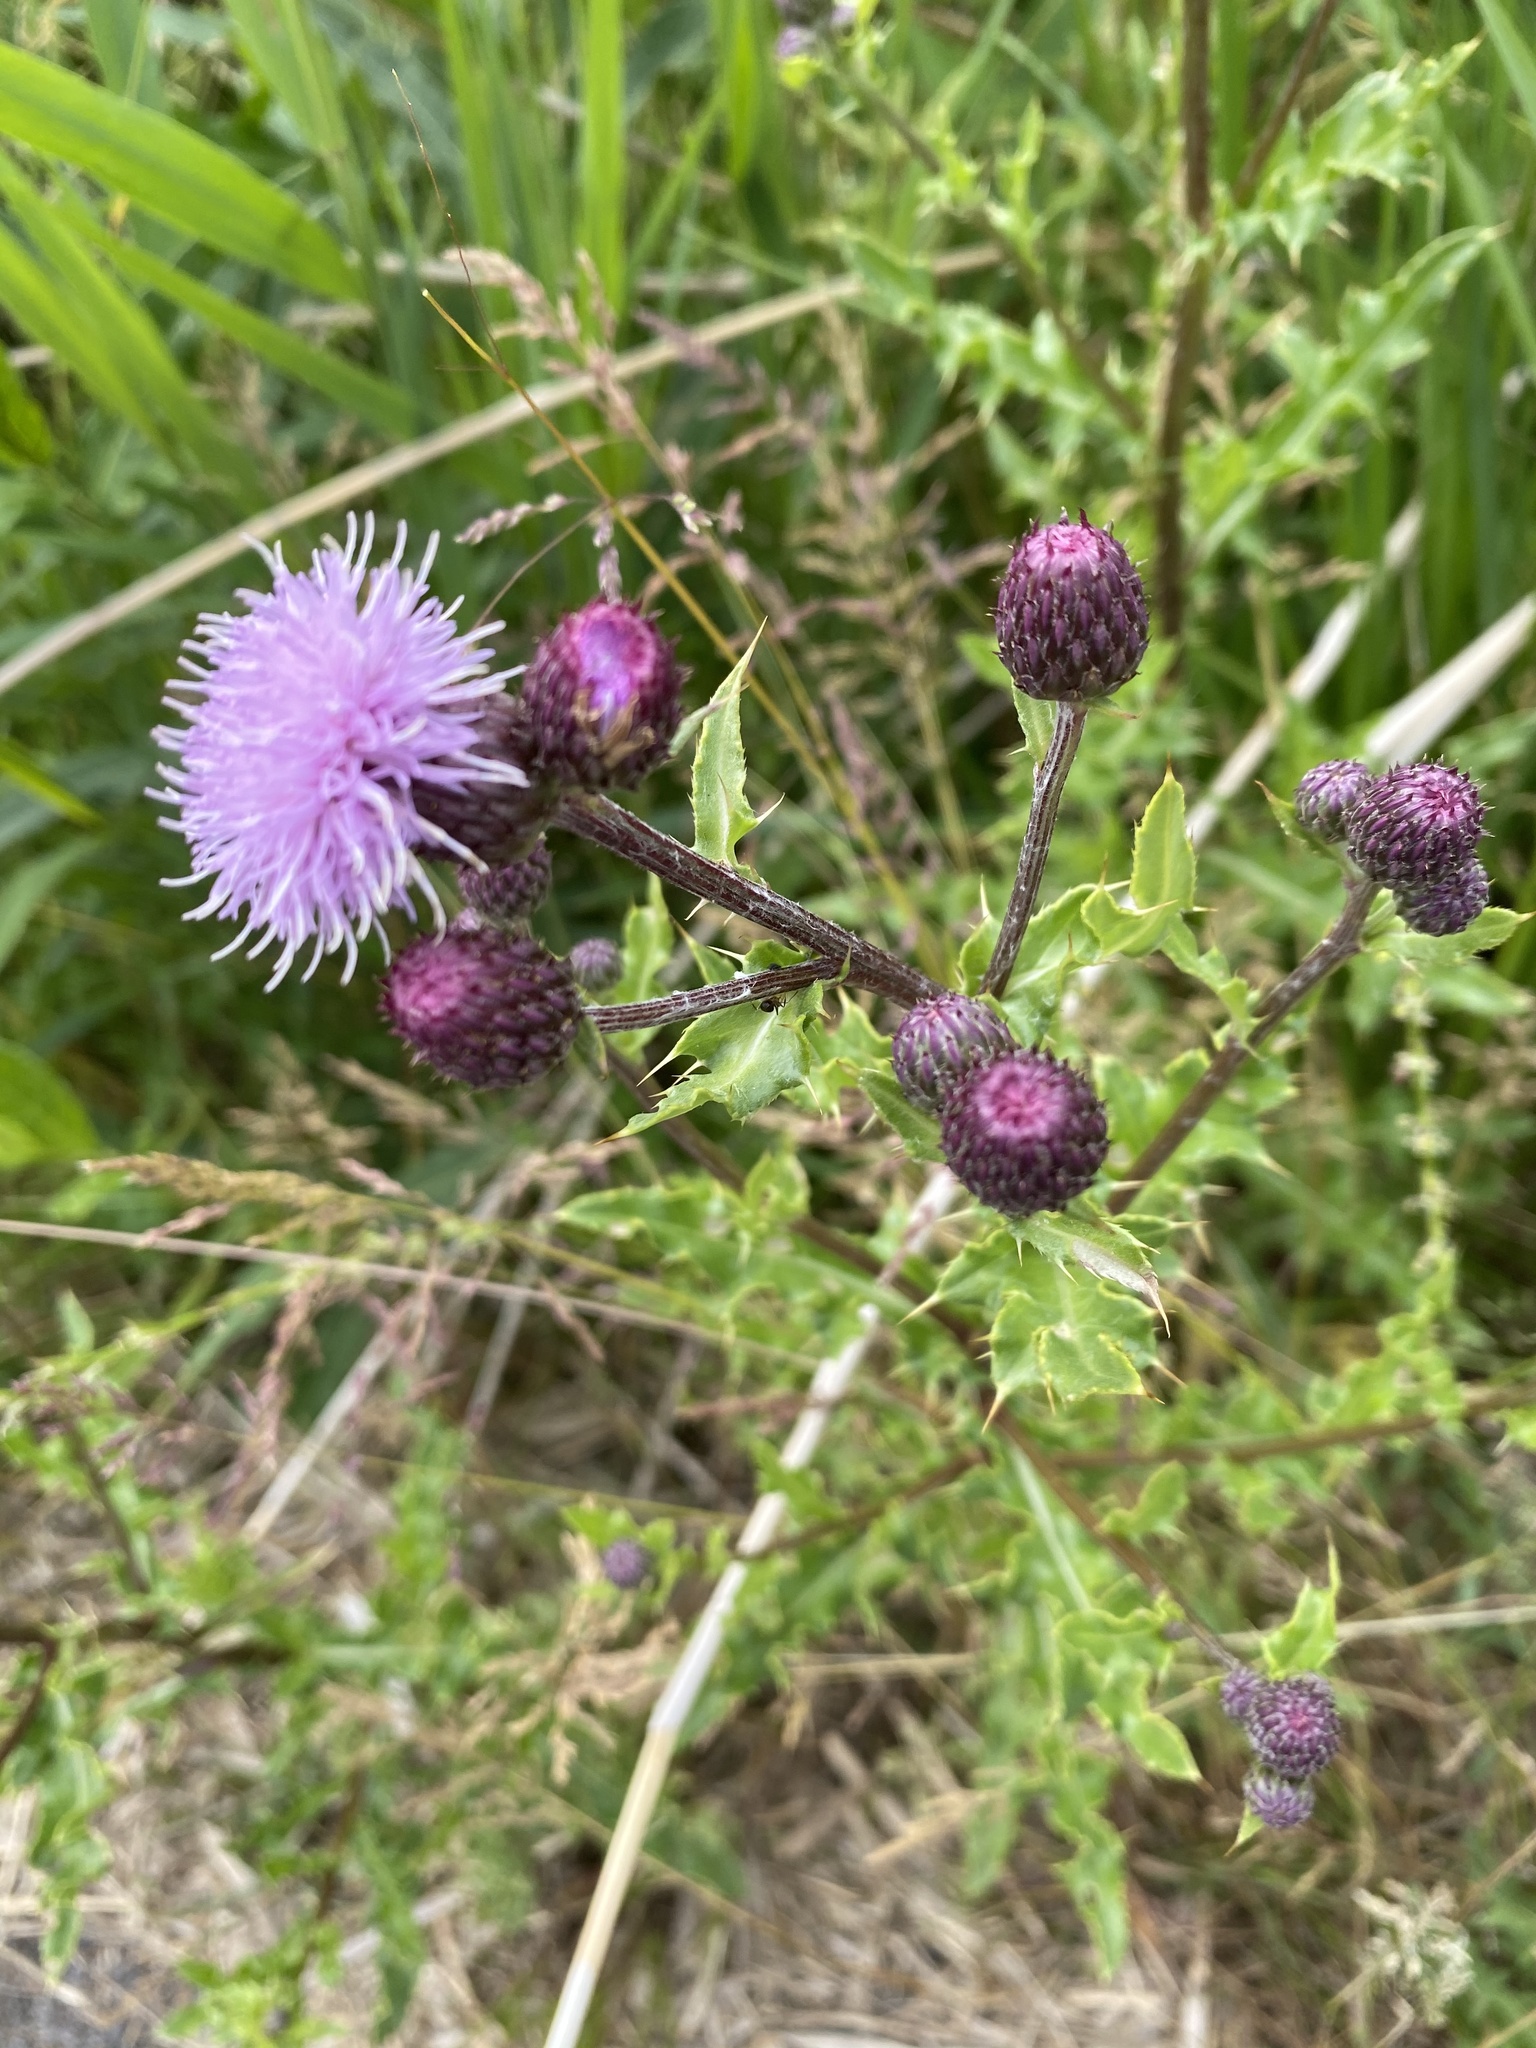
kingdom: Plantae
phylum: Tracheophyta
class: Magnoliopsida
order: Asterales
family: Asteraceae
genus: Cirsium
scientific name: Cirsium arvense
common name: Creeping thistle
